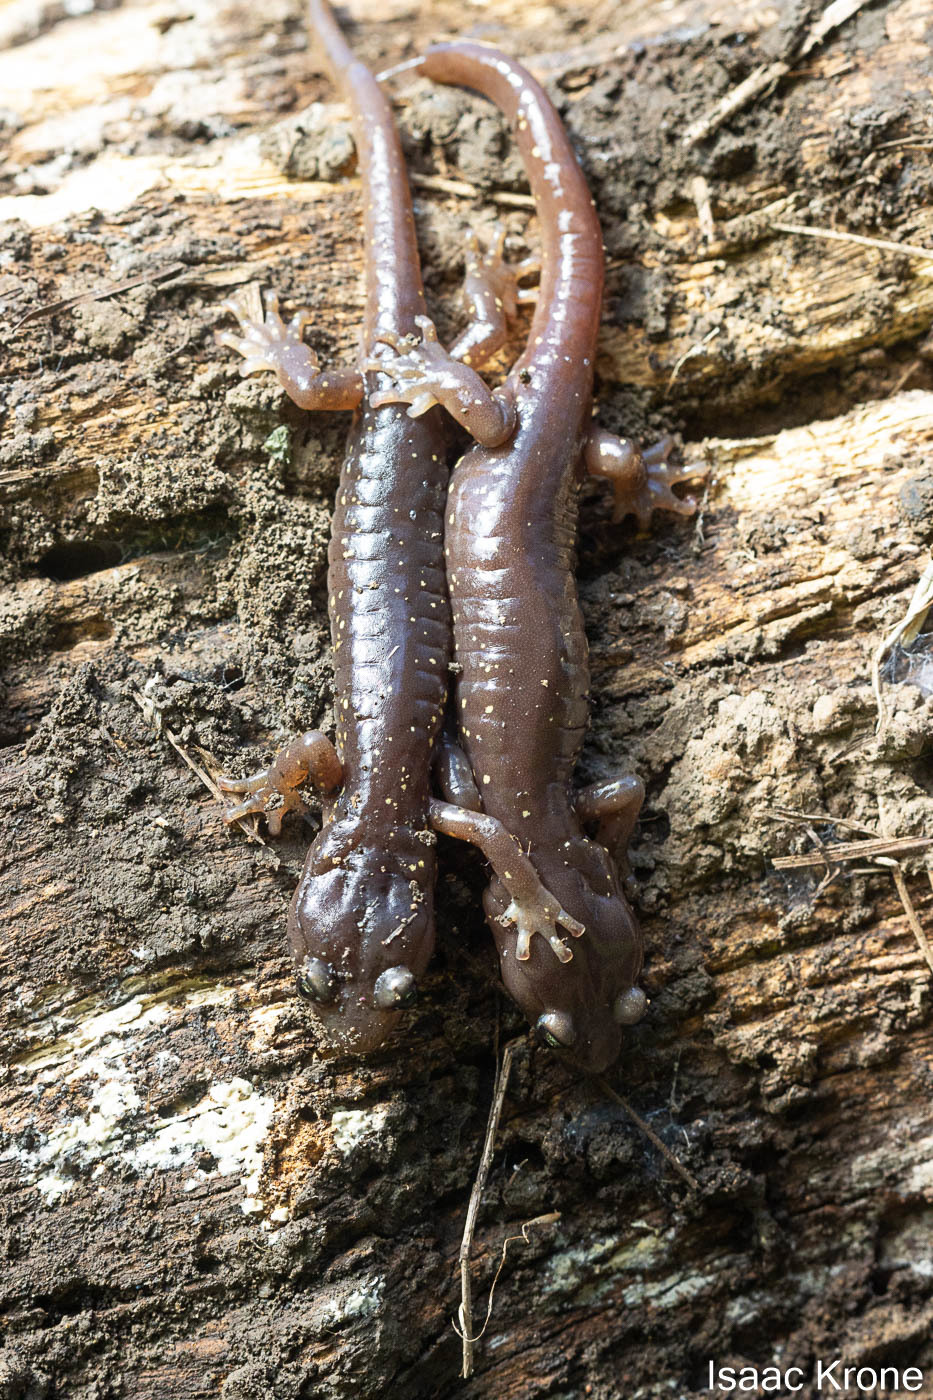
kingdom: Animalia
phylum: Chordata
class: Amphibia
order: Caudata
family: Plethodontidae
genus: Aneides
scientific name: Aneides lugubris
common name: Arboreal salamander
